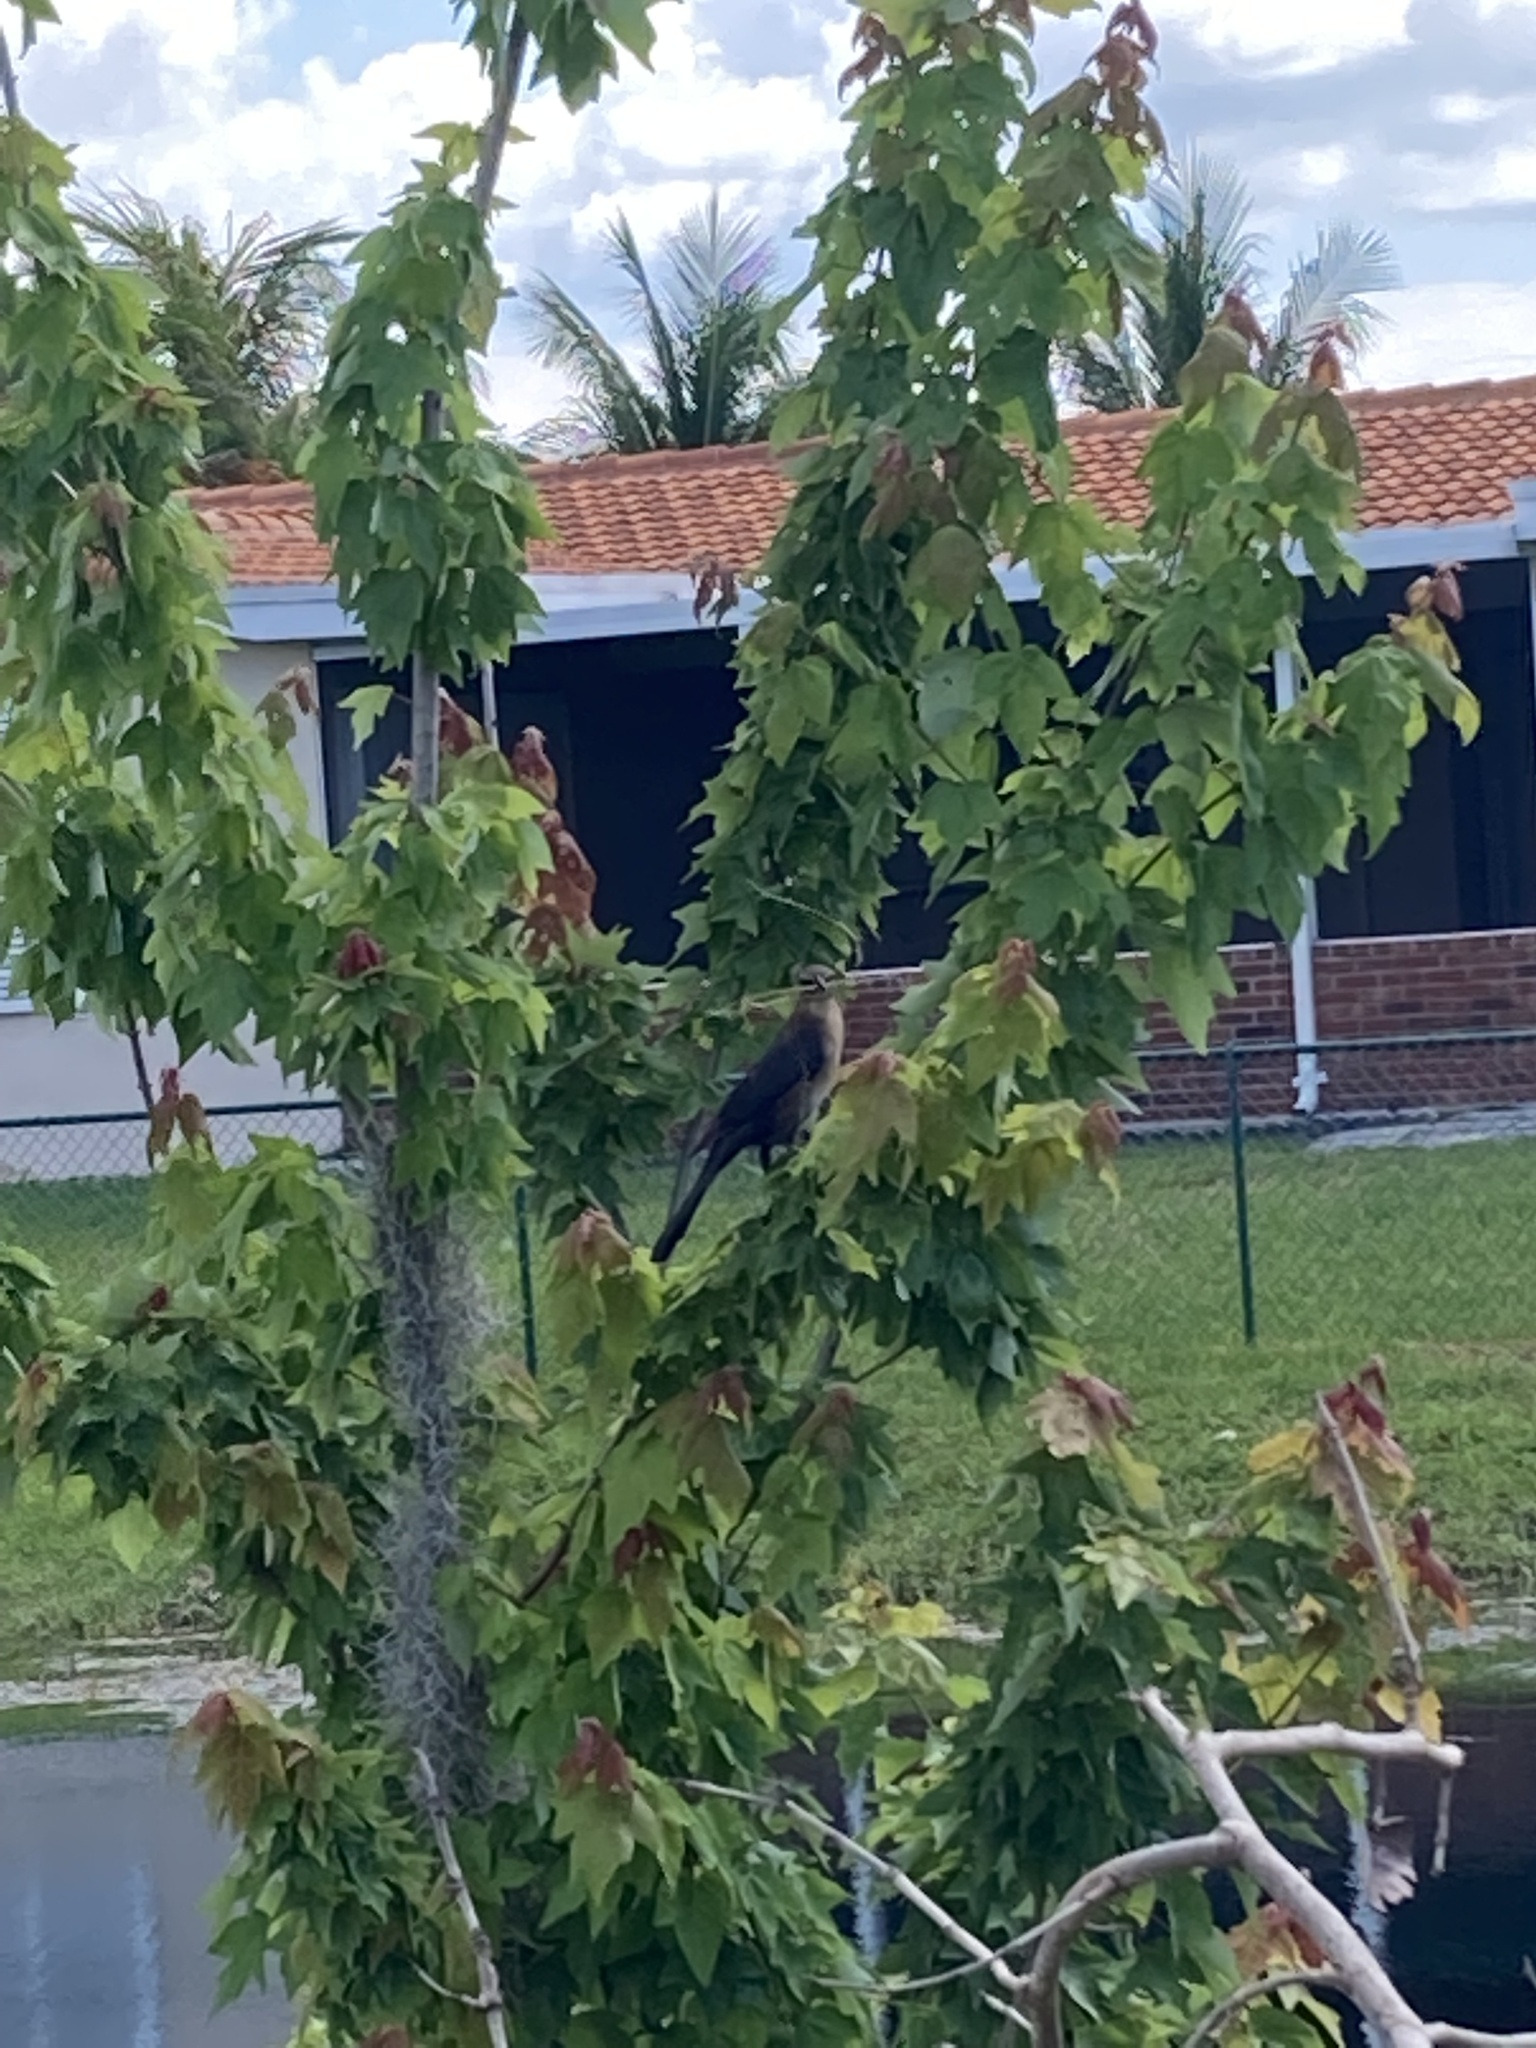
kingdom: Animalia
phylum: Chordata
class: Aves
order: Passeriformes
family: Icteridae
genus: Quiscalus
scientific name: Quiscalus major
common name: Boat-tailed grackle
